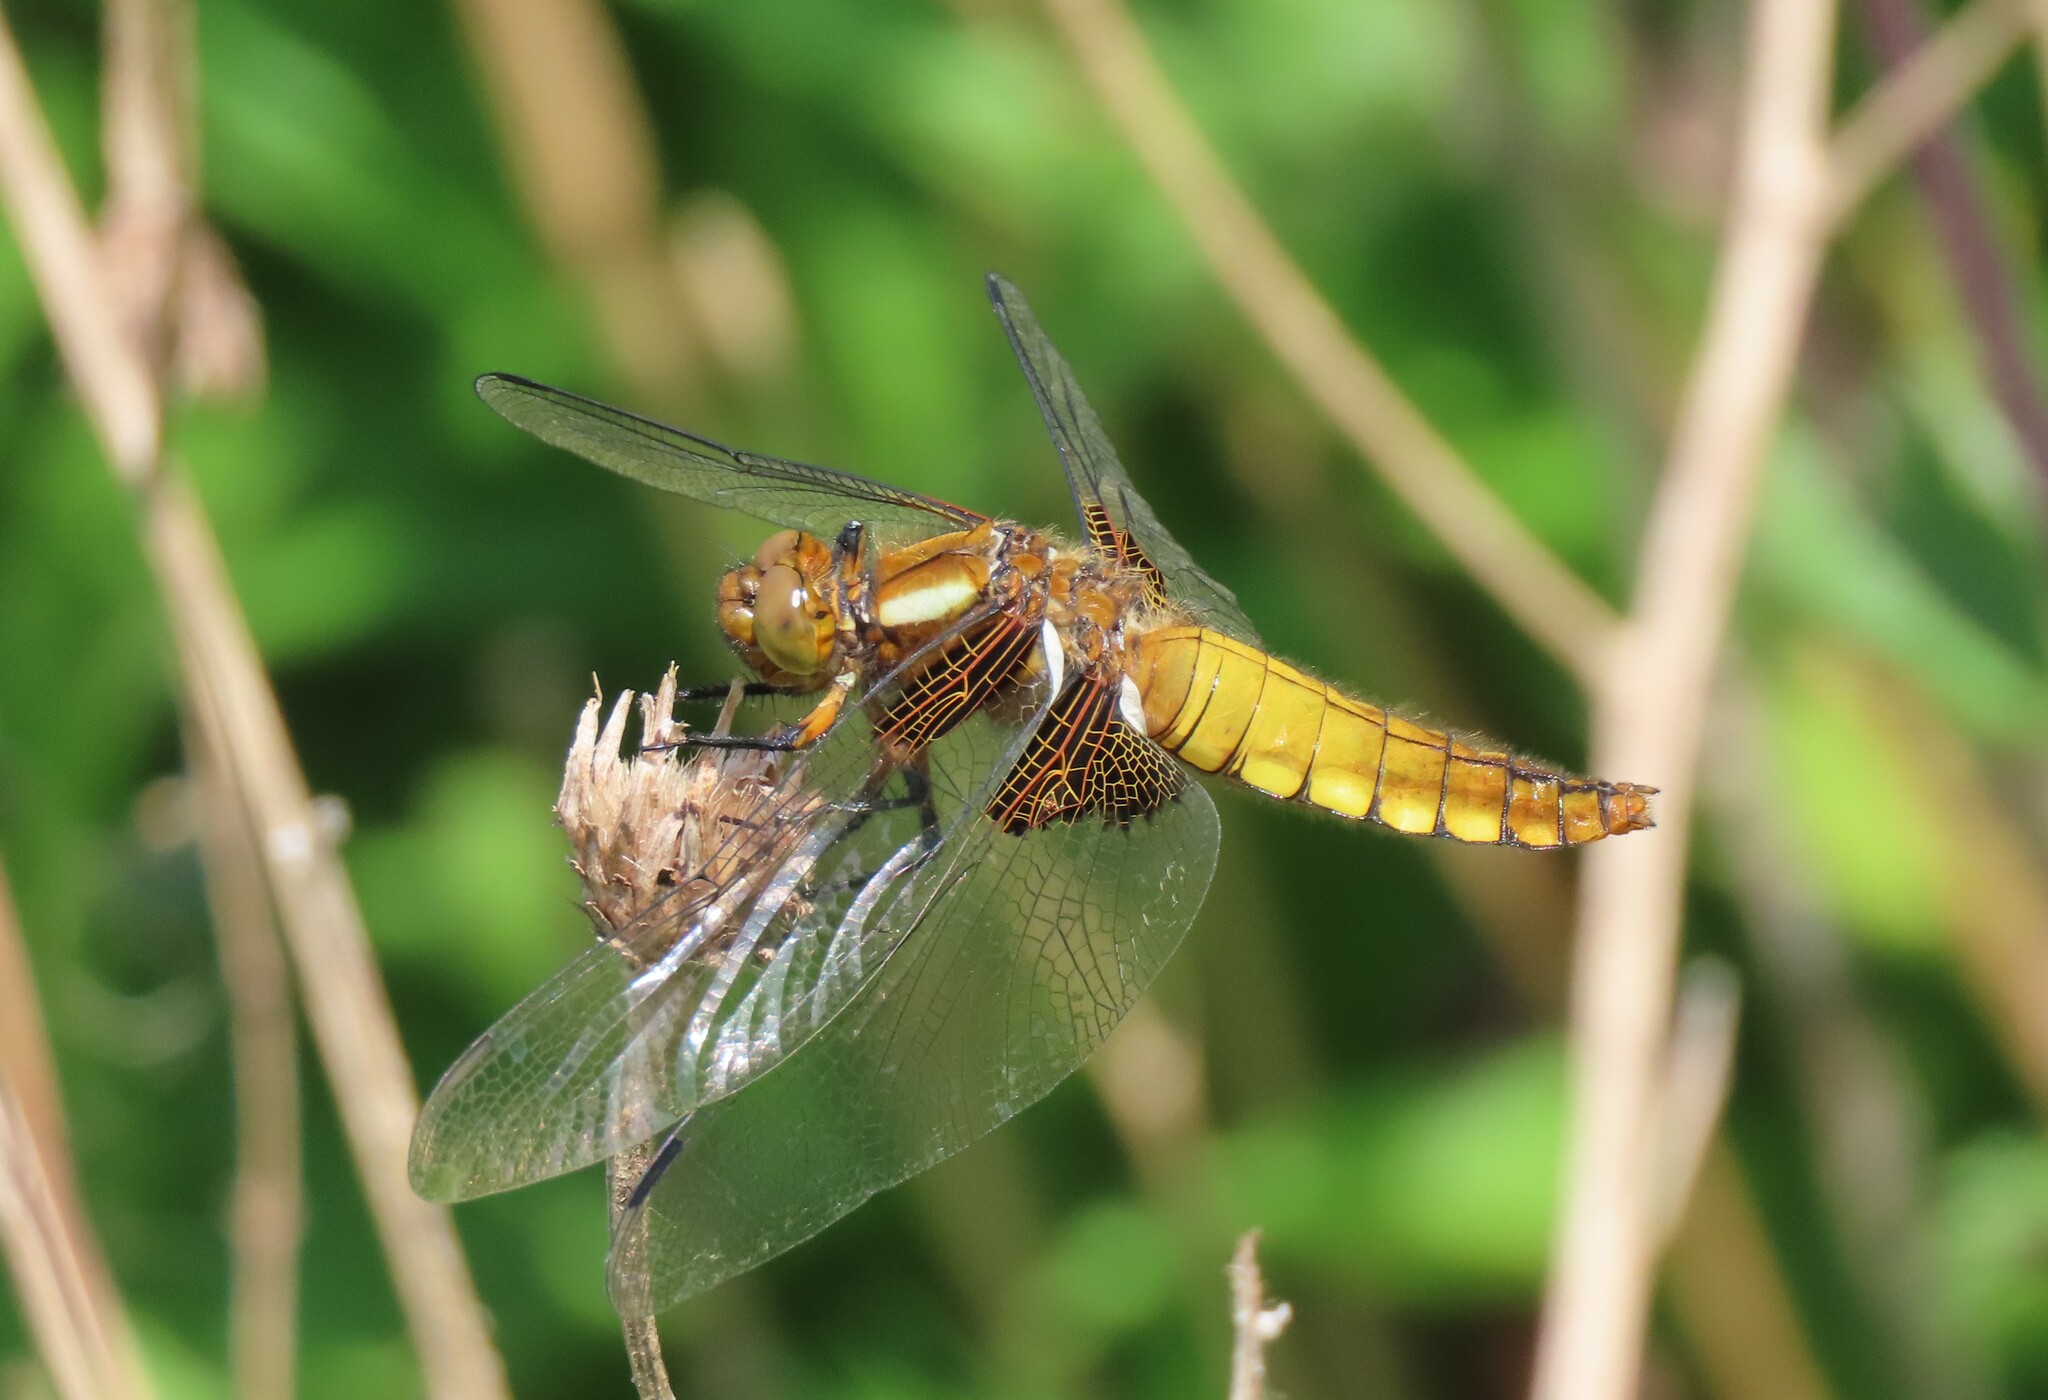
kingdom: Animalia
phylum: Arthropoda
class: Insecta
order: Odonata
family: Libellulidae
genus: Libellula
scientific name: Libellula depressa
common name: Broad-bodied chaser
